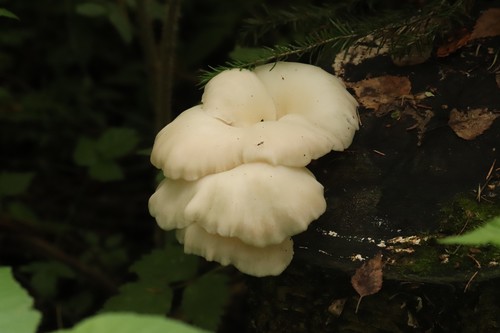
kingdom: Fungi
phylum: Basidiomycota
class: Agaricomycetes
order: Agaricales
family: Pleurotaceae
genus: Pleurotus
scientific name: Pleurotus pulmonarius
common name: Pale oyster
